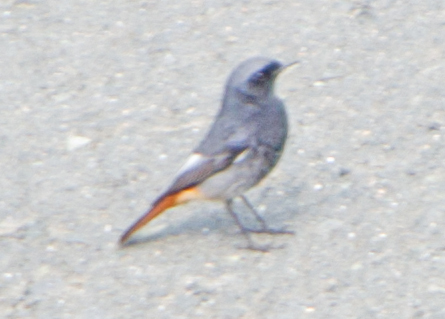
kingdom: Animalia
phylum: Chordata
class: Aves
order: Passeriformes
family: Muscicapidae
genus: Phoenicurus
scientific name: Phoenicurus ochruros
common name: Black redstart
